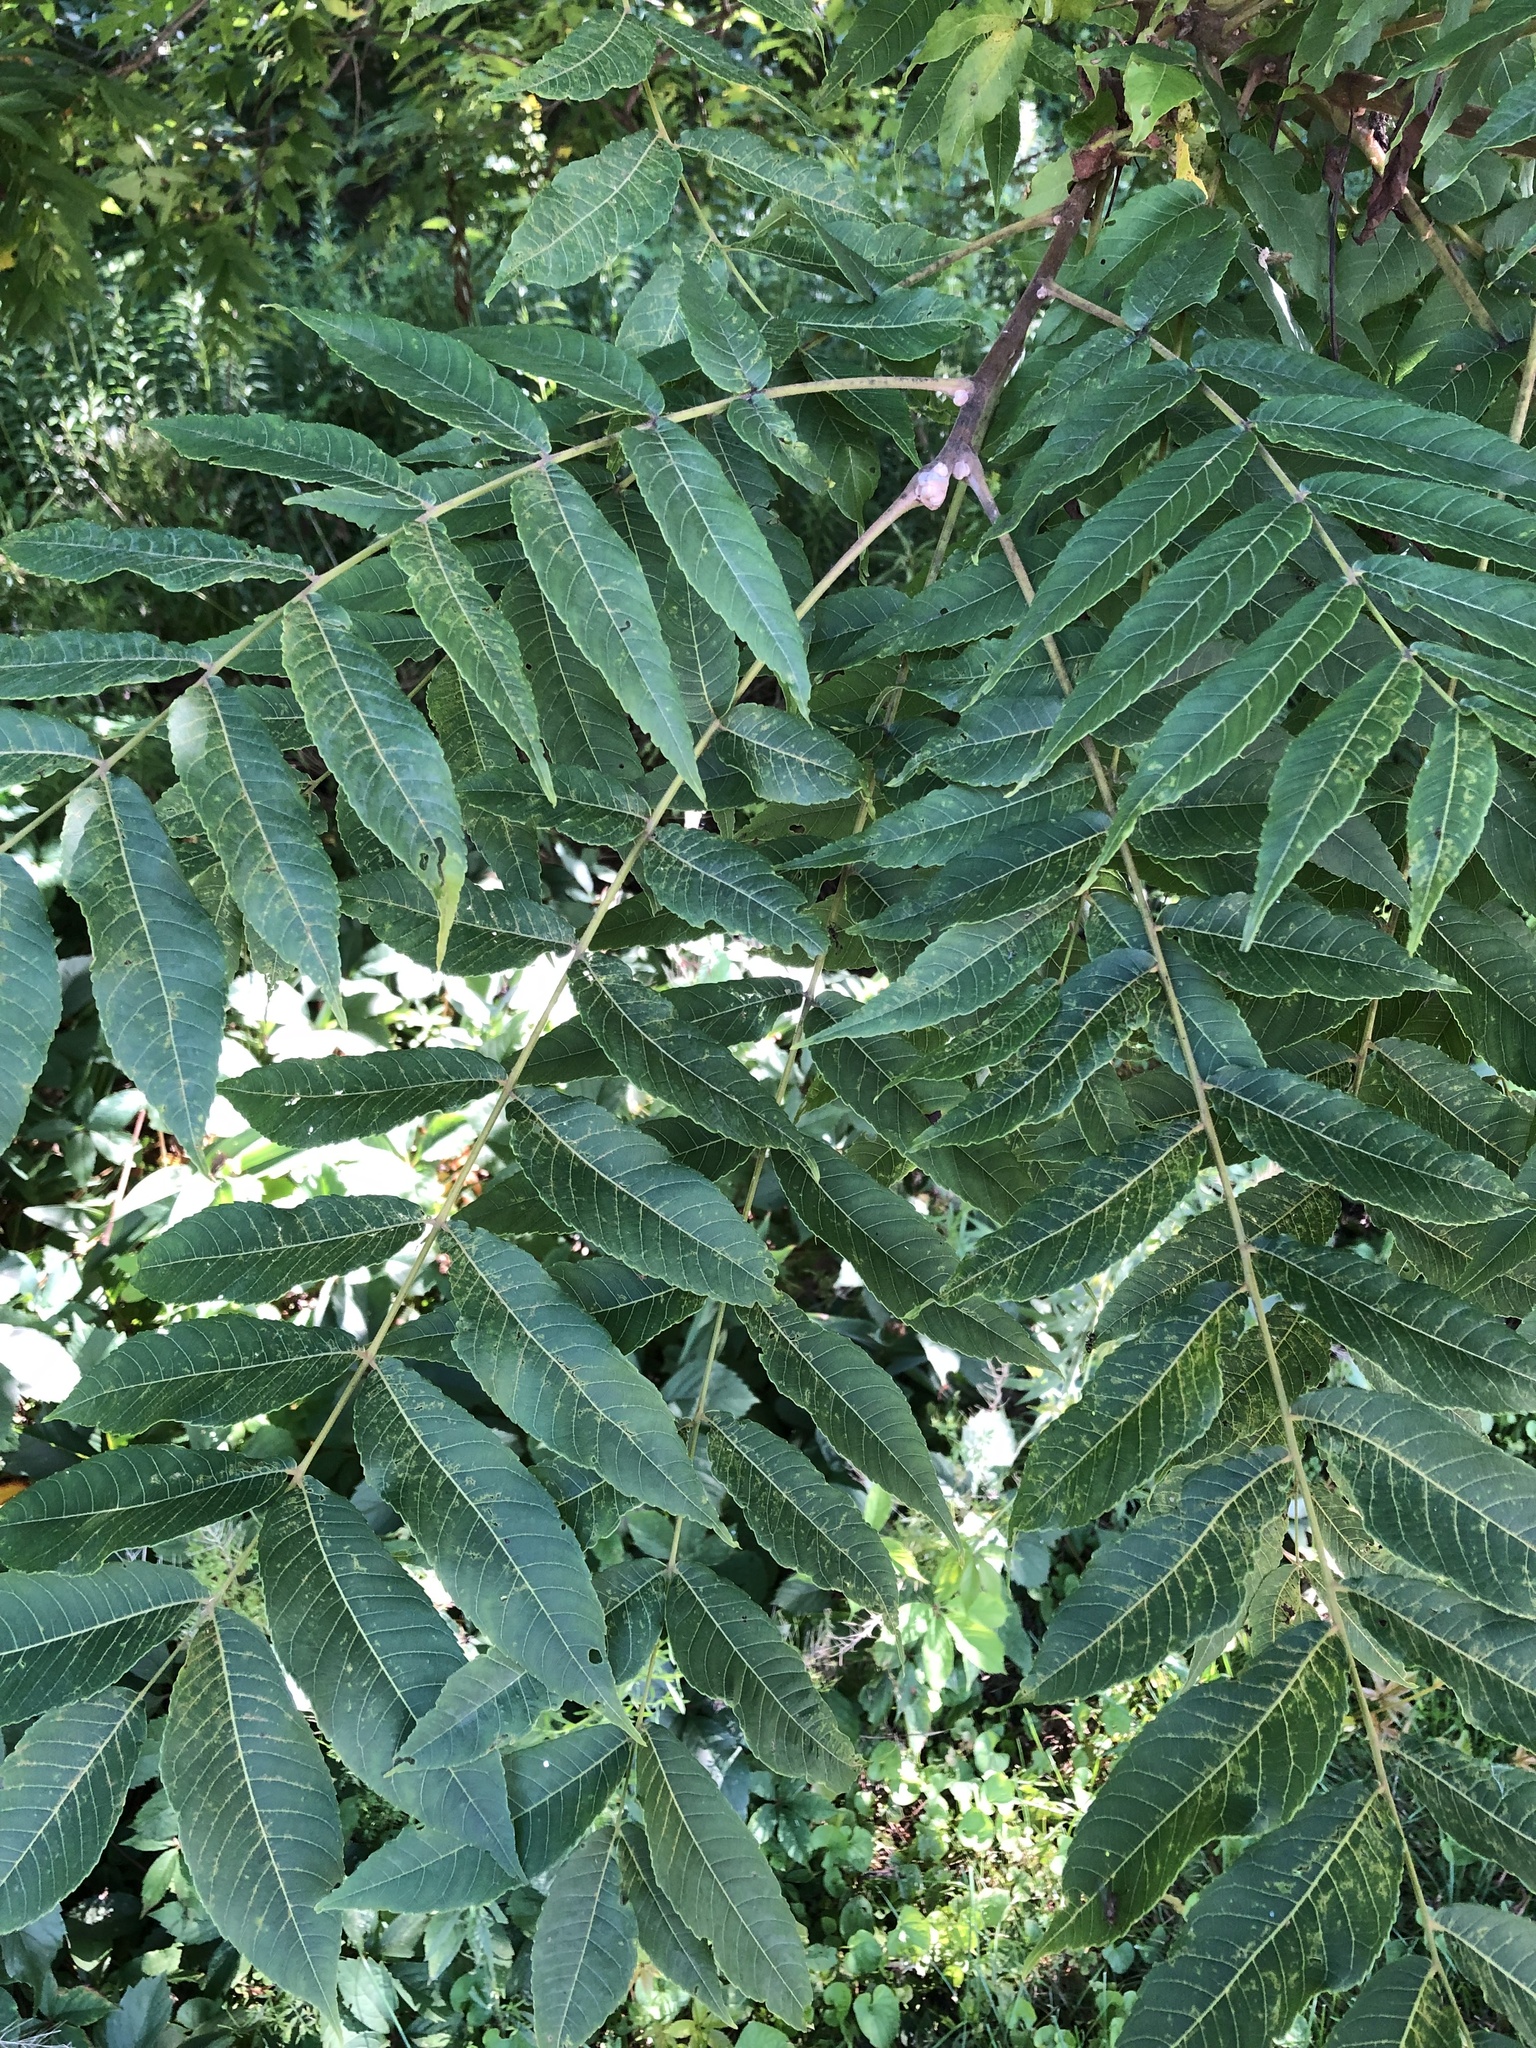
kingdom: Plantae
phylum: Tracheophyta
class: Magnoliopsida
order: Fagales
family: Juglandaceae
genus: Juglans
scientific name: Juglans nigra
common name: Black walnut
